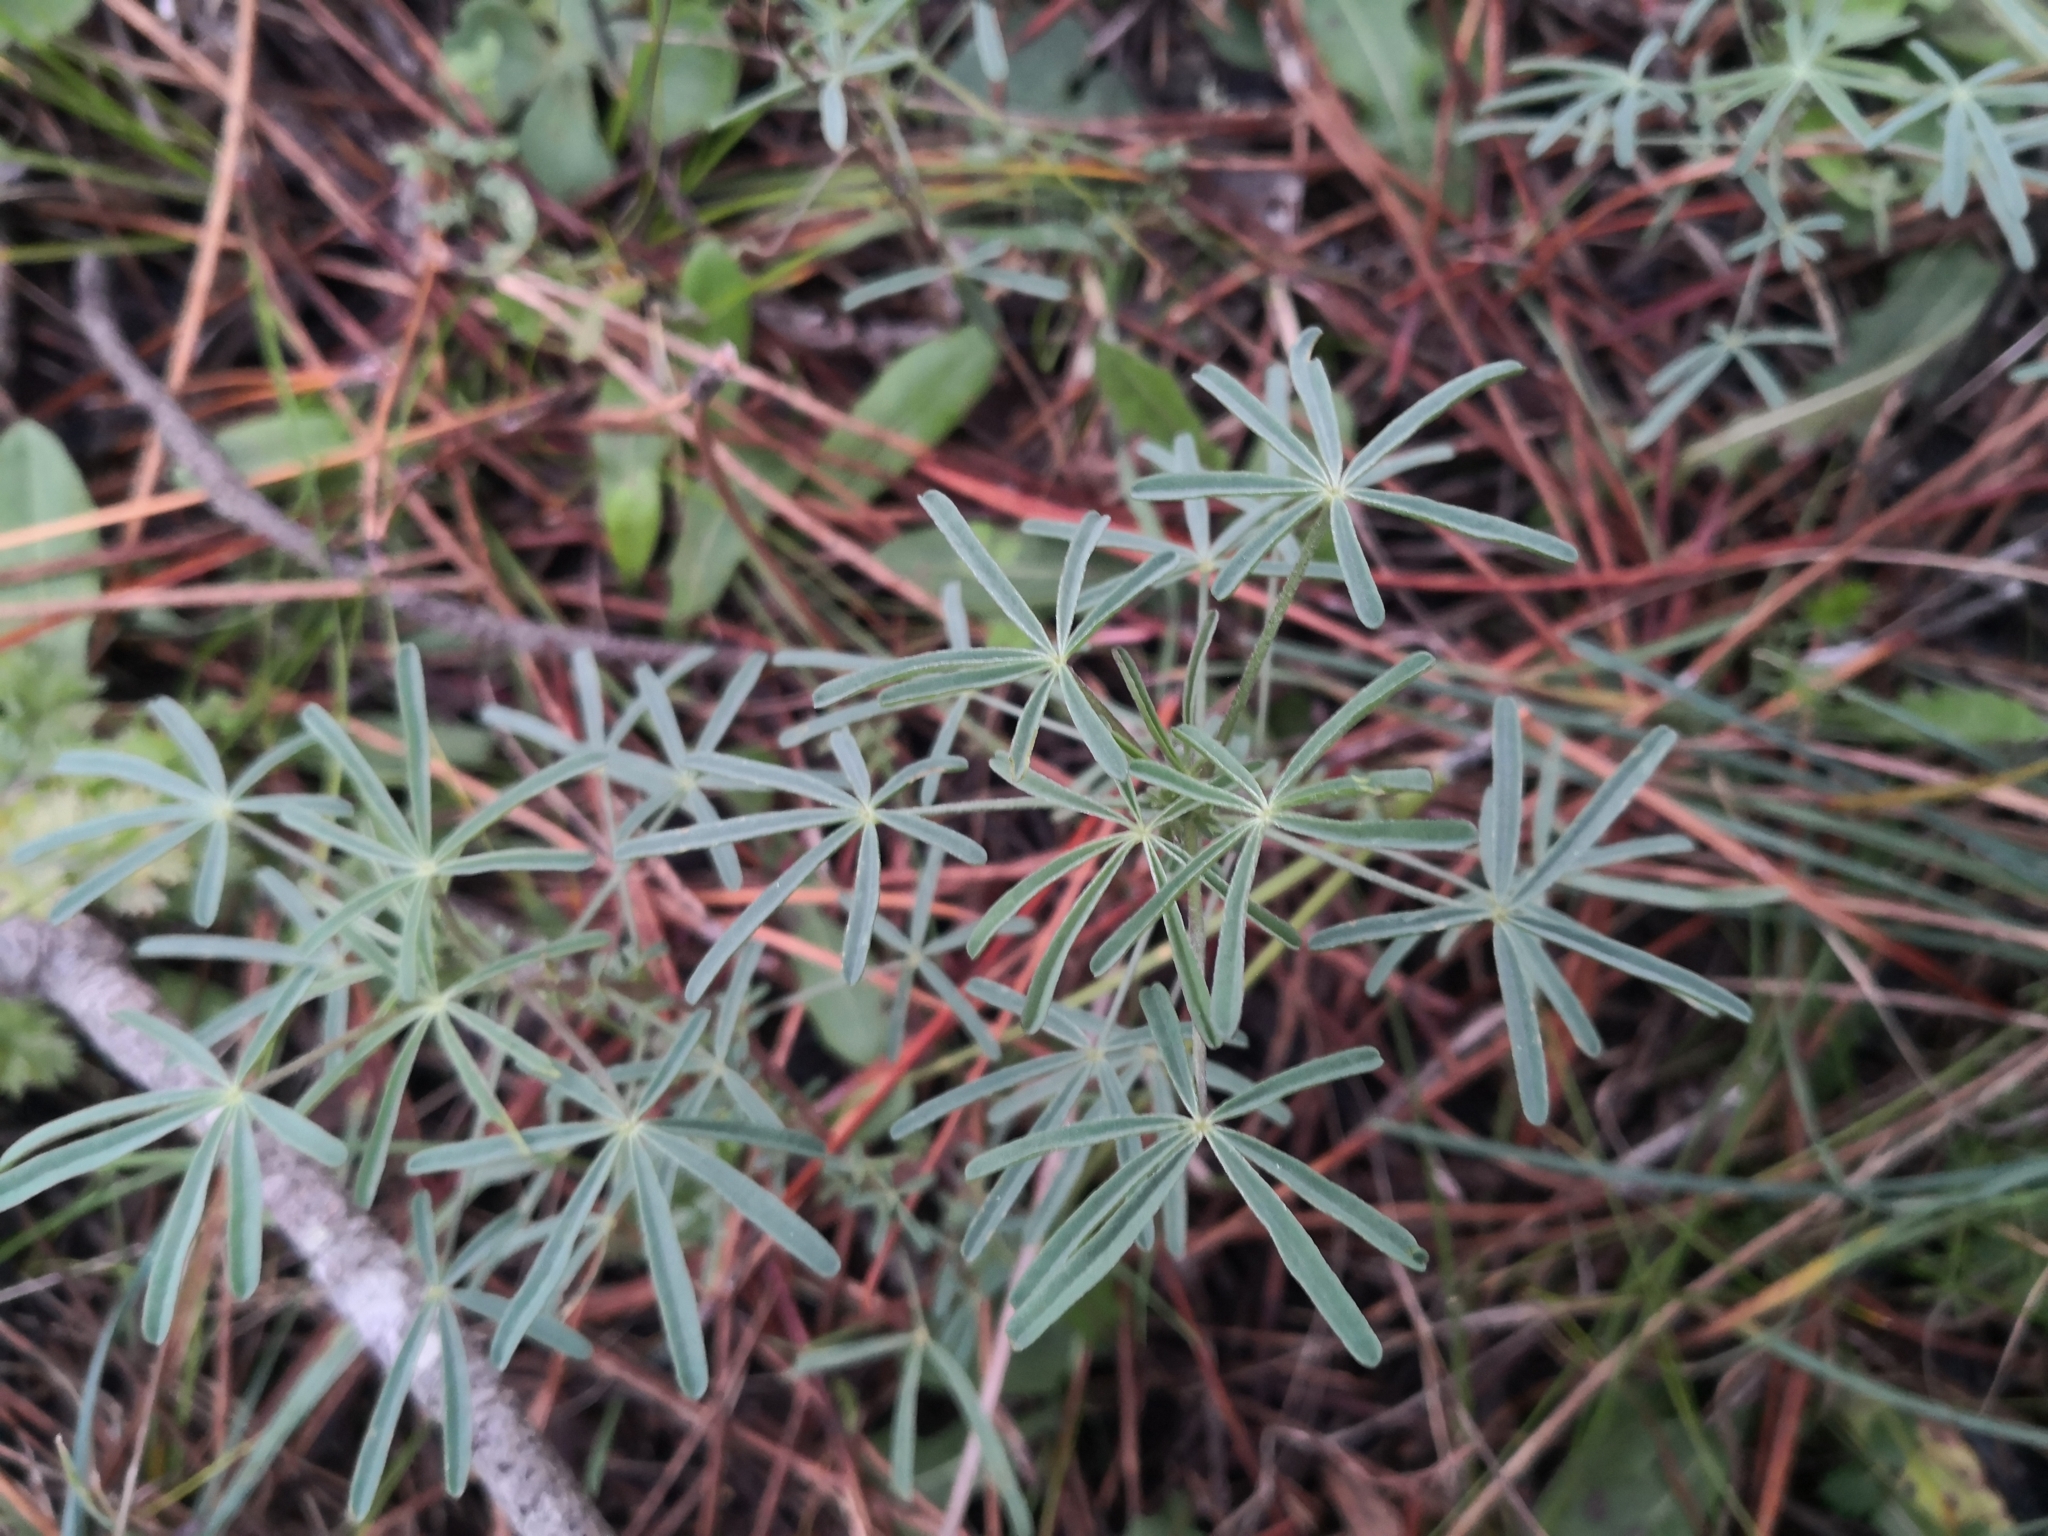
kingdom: Plantae
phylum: Tracheophyta
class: Magnoliopsida
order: Fabales
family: Fabaceae
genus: Lupinus
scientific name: Lupinus angustifolius
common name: Narrow-leaved lupin
